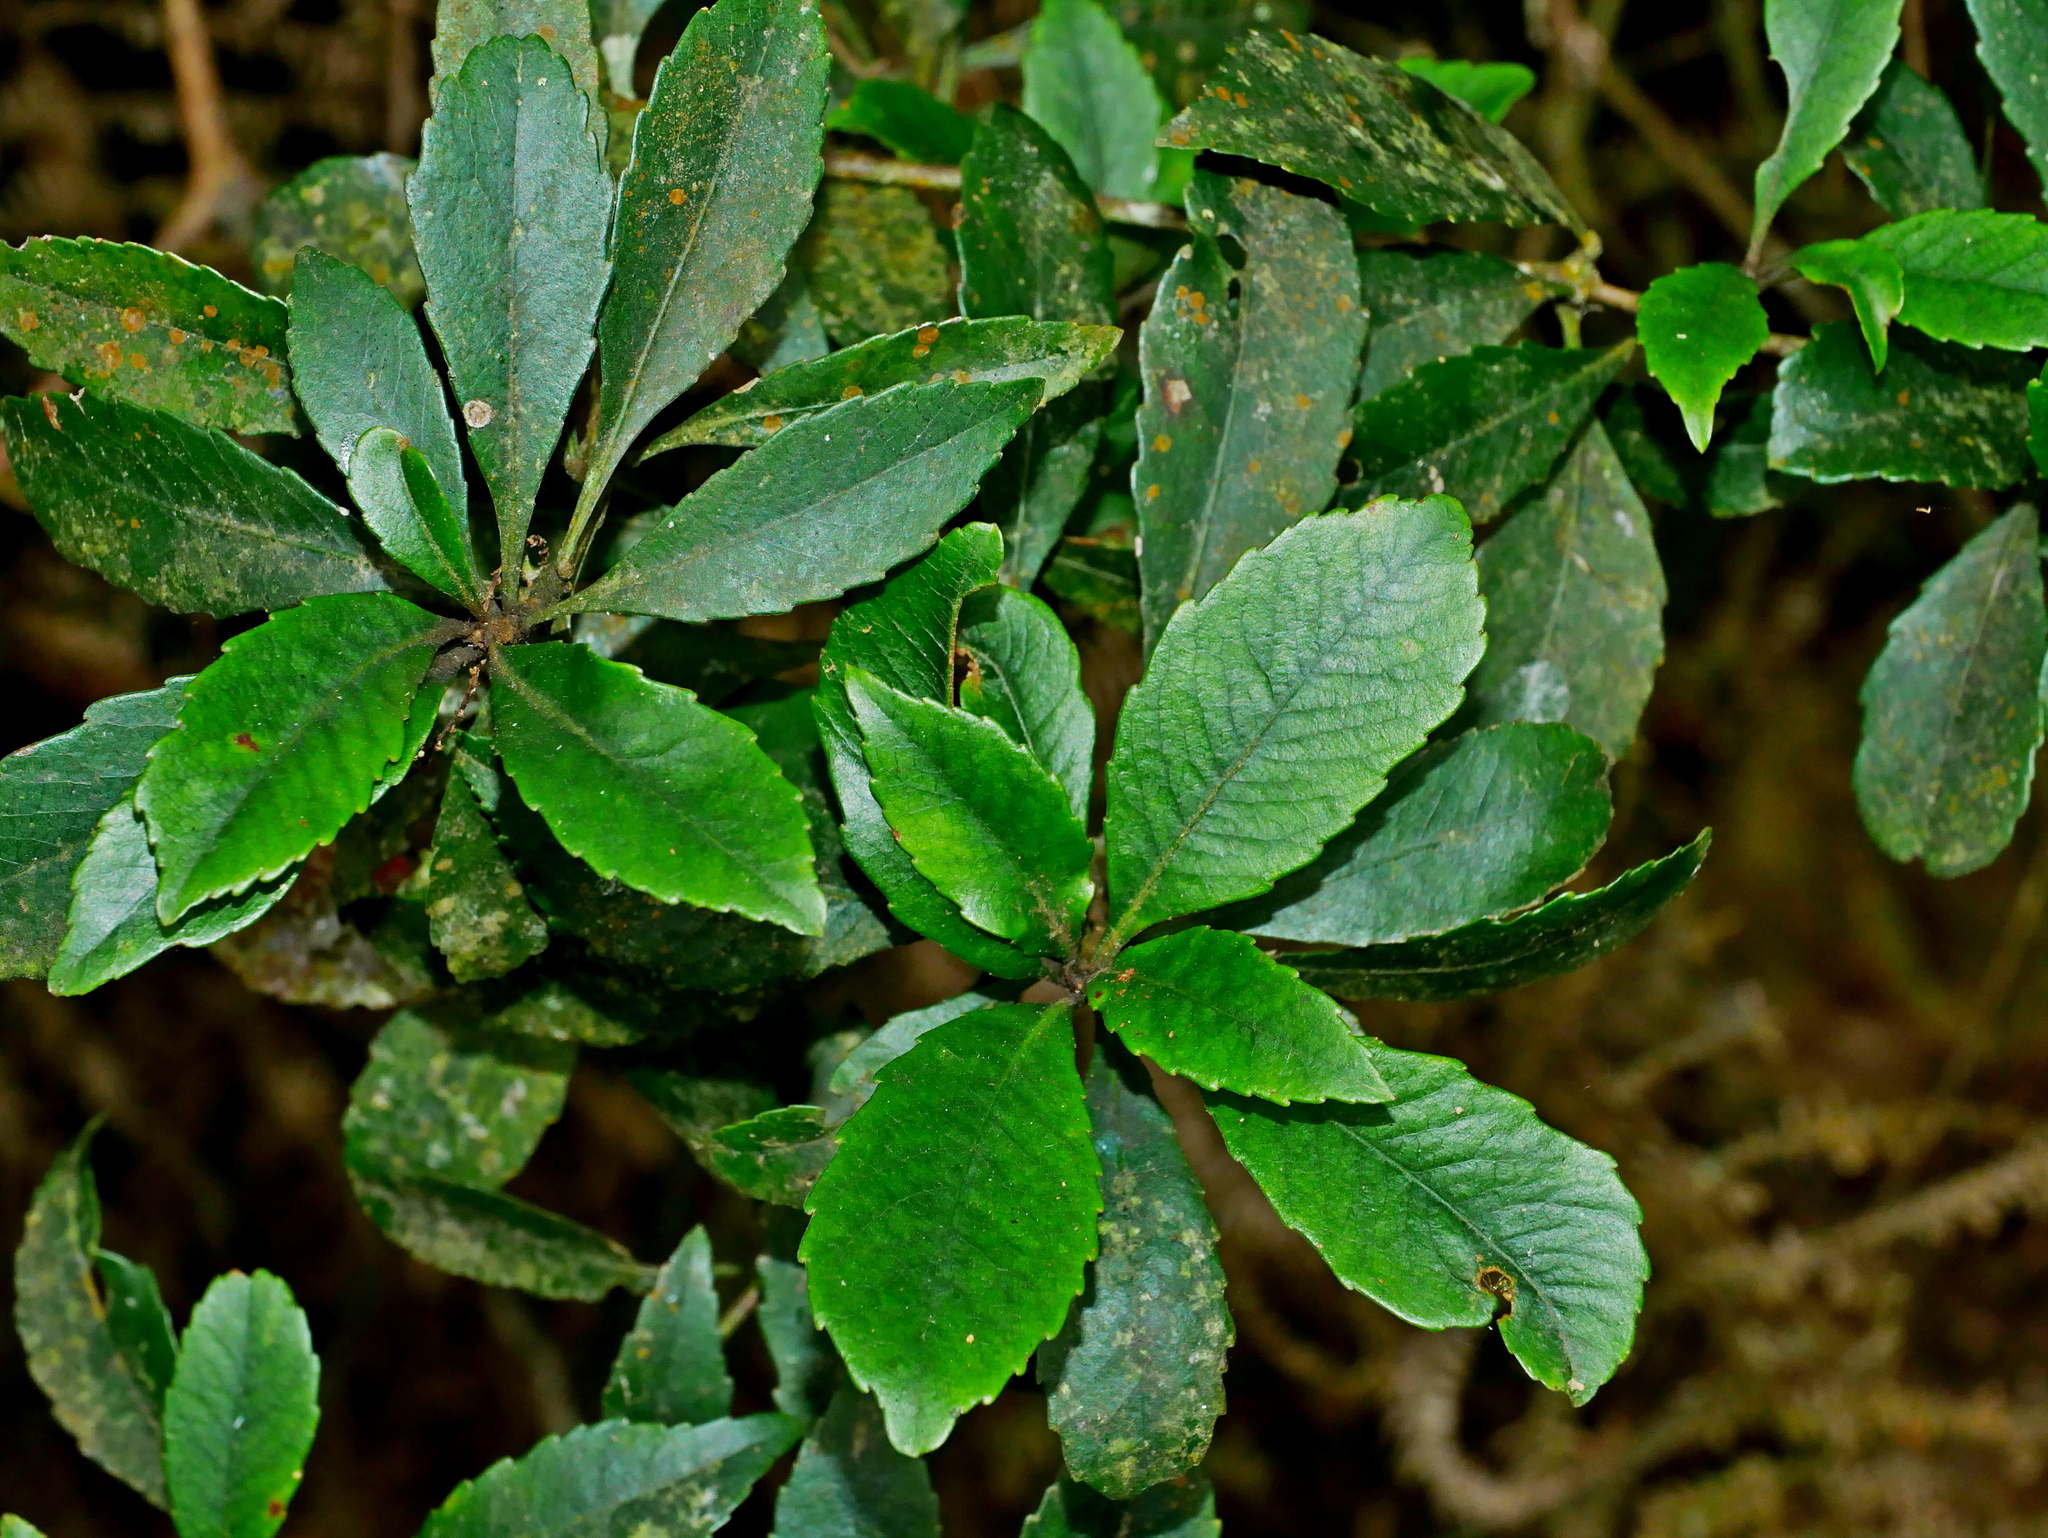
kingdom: Plantae
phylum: Tracheophyta
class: Magnoliopsida
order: Rosales
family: Rosaceae
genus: Rhaphiolepis
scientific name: Rhaphiolepis indica
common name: India-hawthorn
